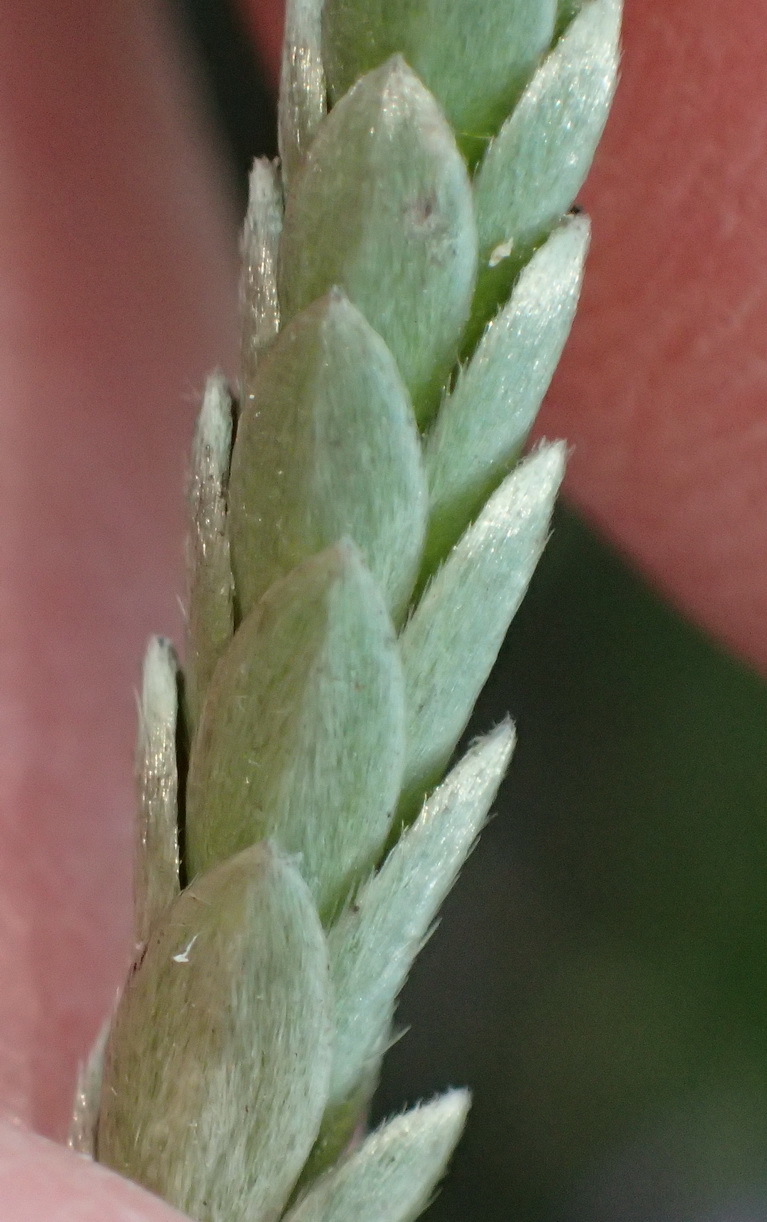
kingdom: Plantae
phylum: Tracheophyta
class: Magnoliopsida
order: Malvales
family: Thymelaeaceae
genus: Gnidia
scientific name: Gnidia chrysophylla
